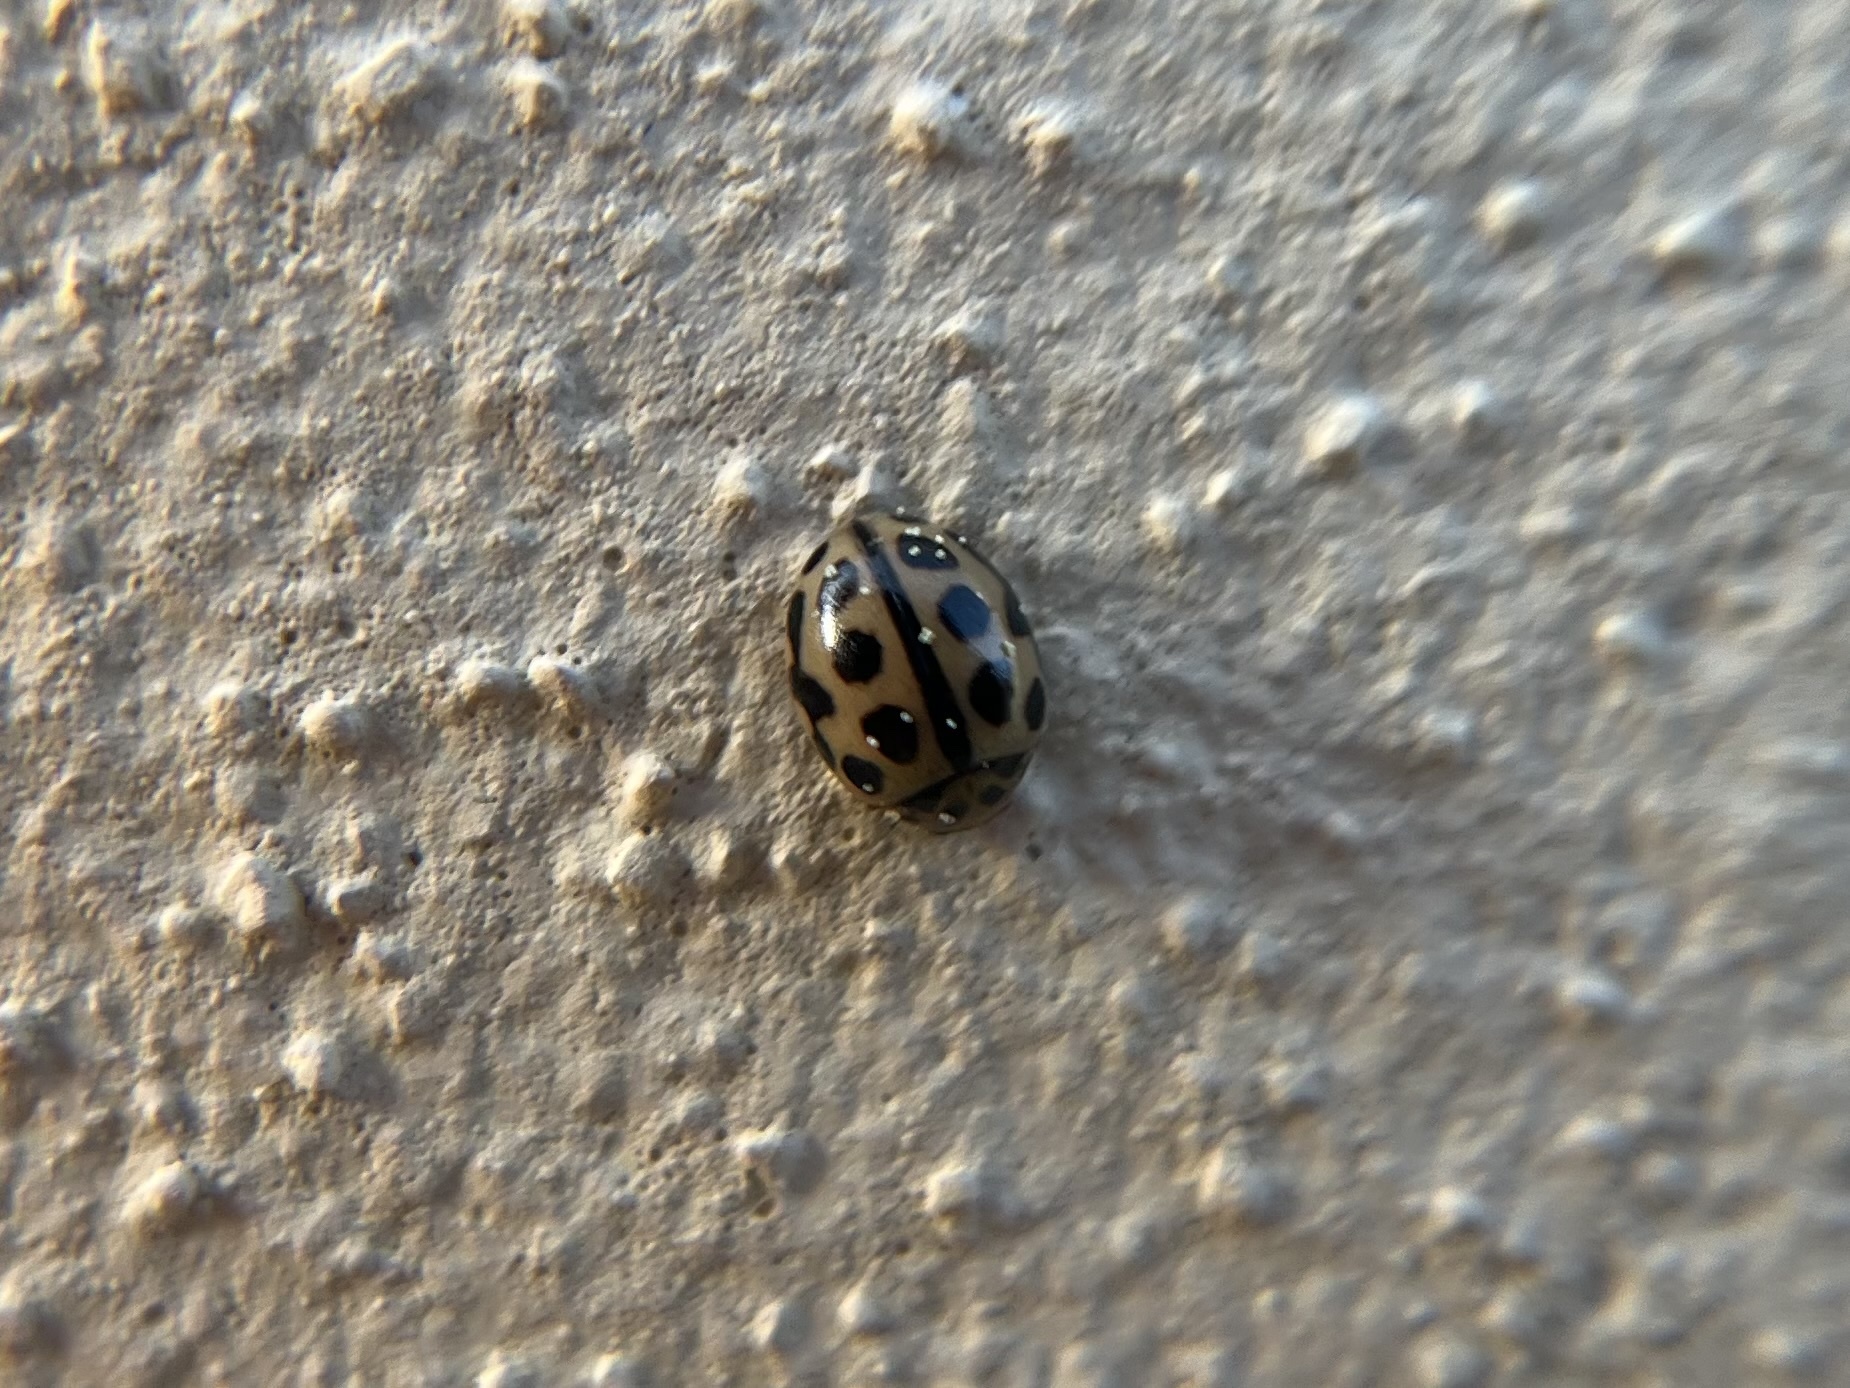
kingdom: Animalia
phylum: Arthropoda
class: Insecta
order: Coleoptera
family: Coccinellidae
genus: Tytthaspis
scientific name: Tytthaspis sedecimpunctata
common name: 16-spot ladybird
